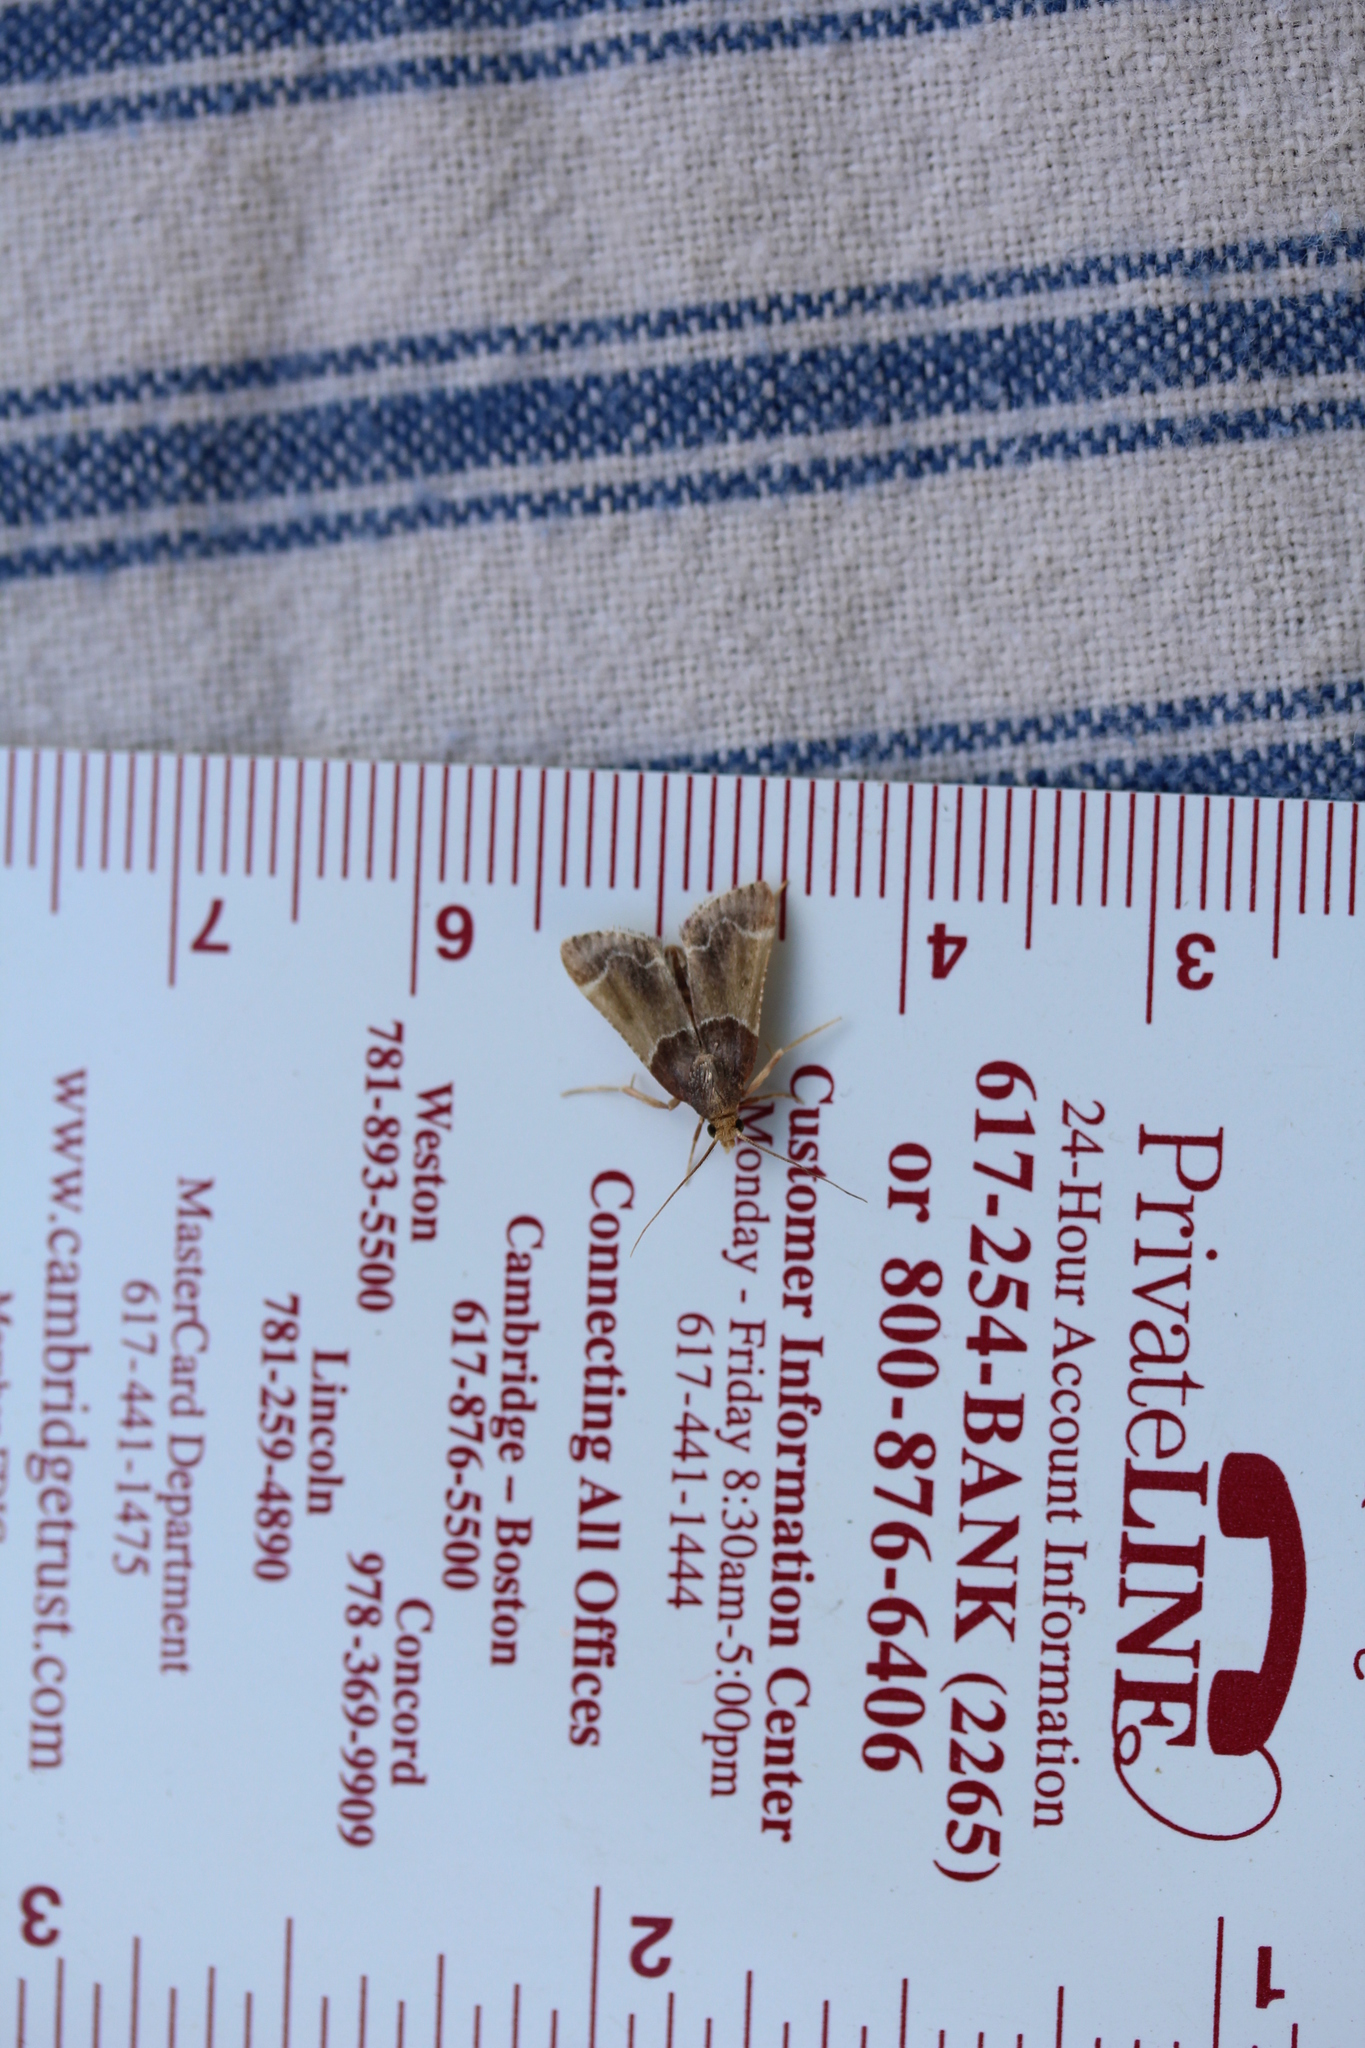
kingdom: Animalia
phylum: Arthropoda
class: Insecta
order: Lepidoptera
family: Pyralidae
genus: Pyralis
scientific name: Pyralis farinalis
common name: Meal moth
